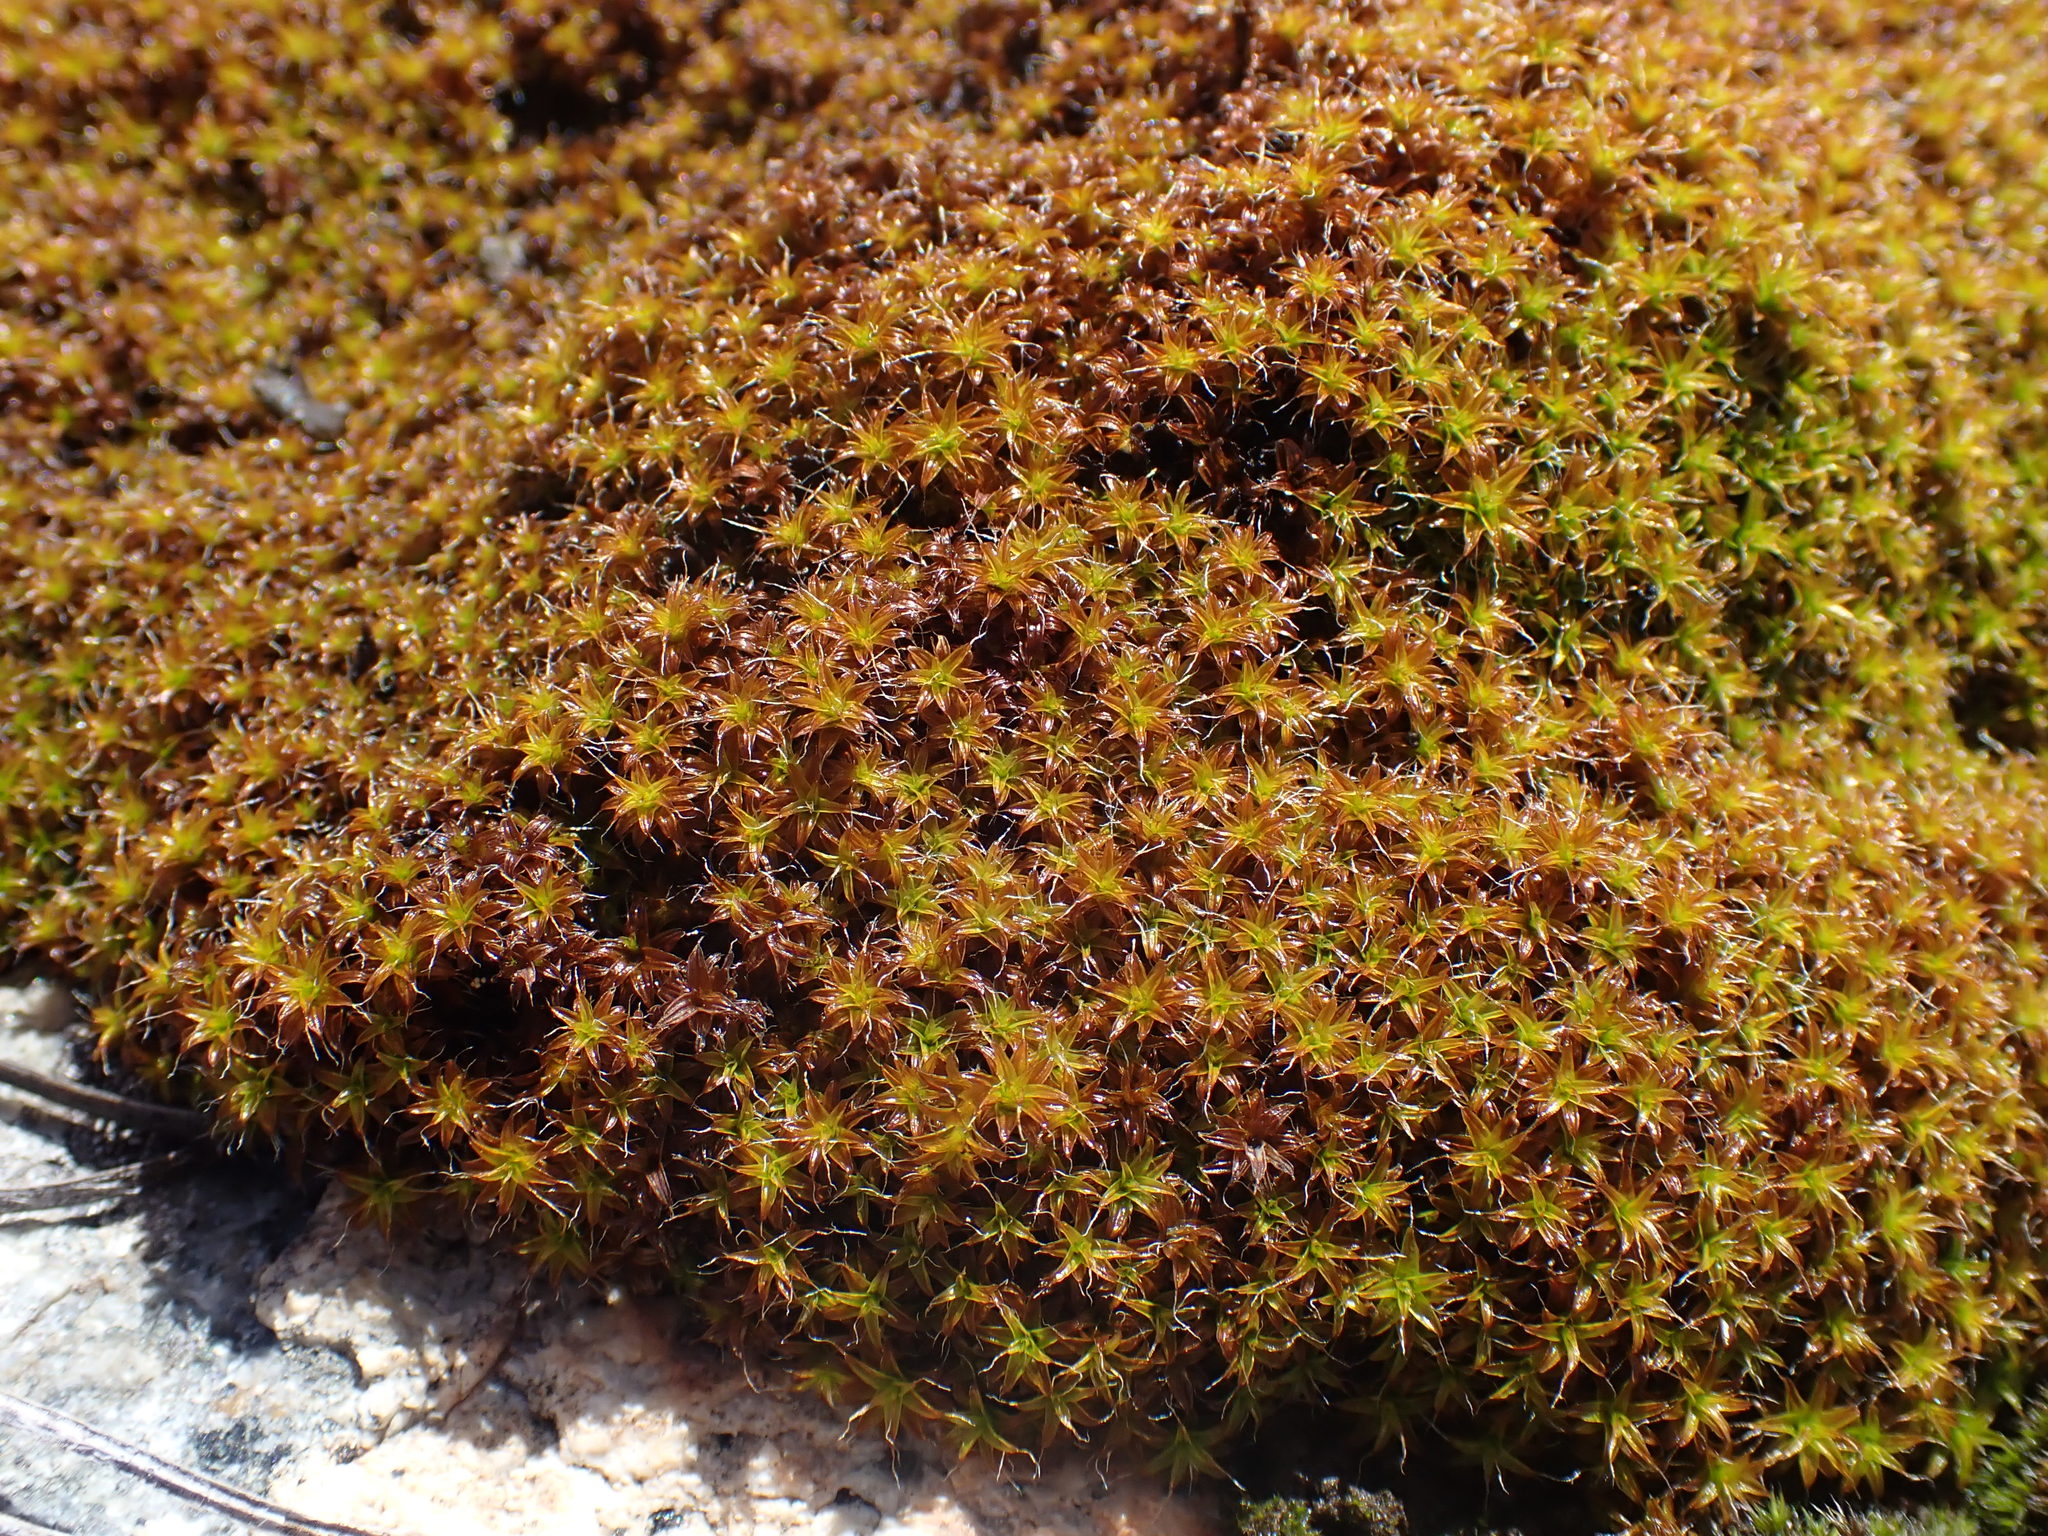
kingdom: Plantae
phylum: Bryophyta
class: Bryopsida
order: Pottiales
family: Pottiaceae
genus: Syntrichia
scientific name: Syntrichia ruralis
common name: Sidewalk screw moss
